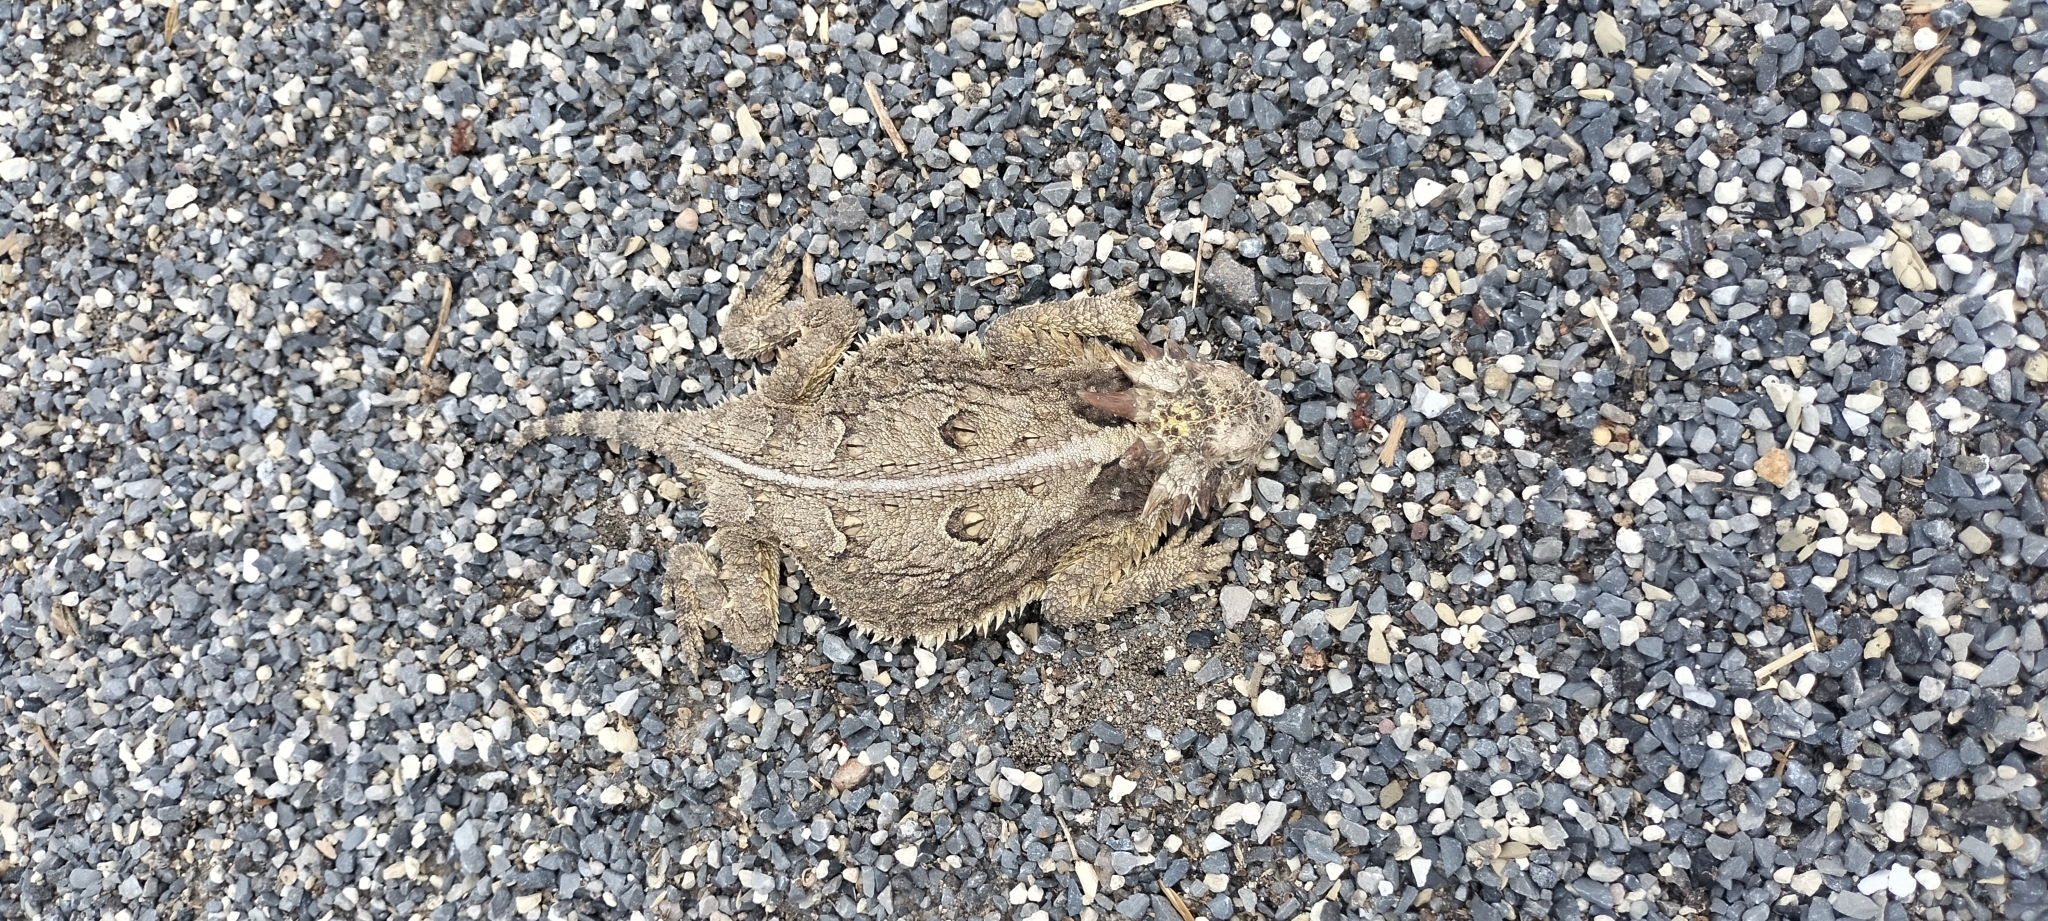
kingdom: Animalia
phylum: Chordata
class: Squamata
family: Phrynosomatidae
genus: Phrynosoma
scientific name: Phrynosoma cornutum
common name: Texas horned lizard
